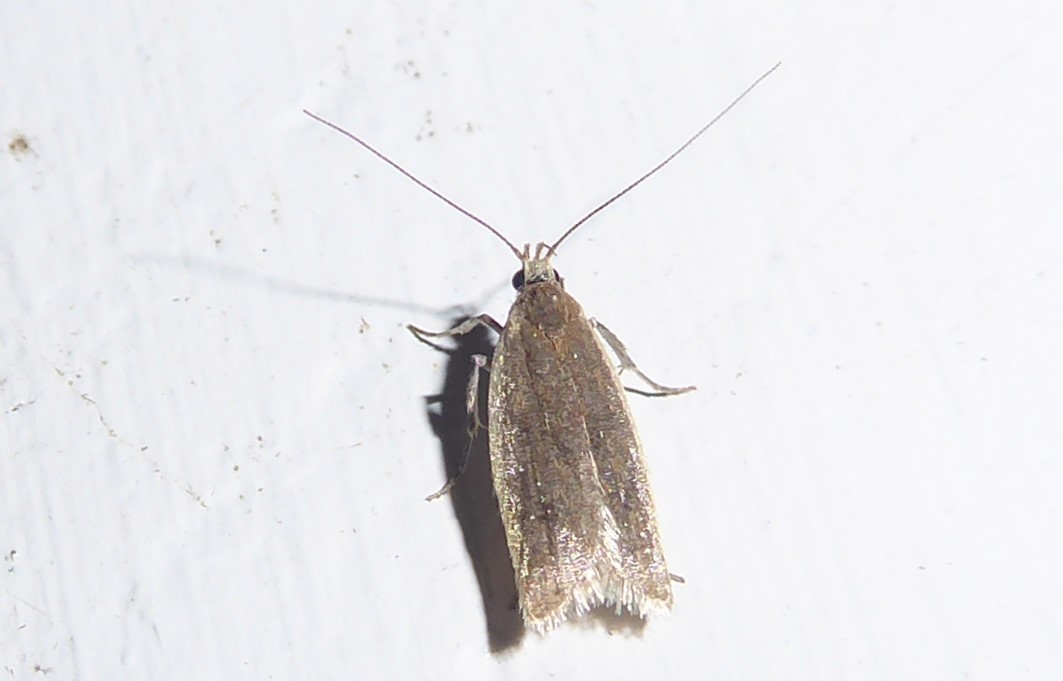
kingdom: Animalia
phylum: Arthropoda
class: Insecta
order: Lepidoptera
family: Oecophoridae
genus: Gymnobathra
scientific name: Gymnobathra parca
